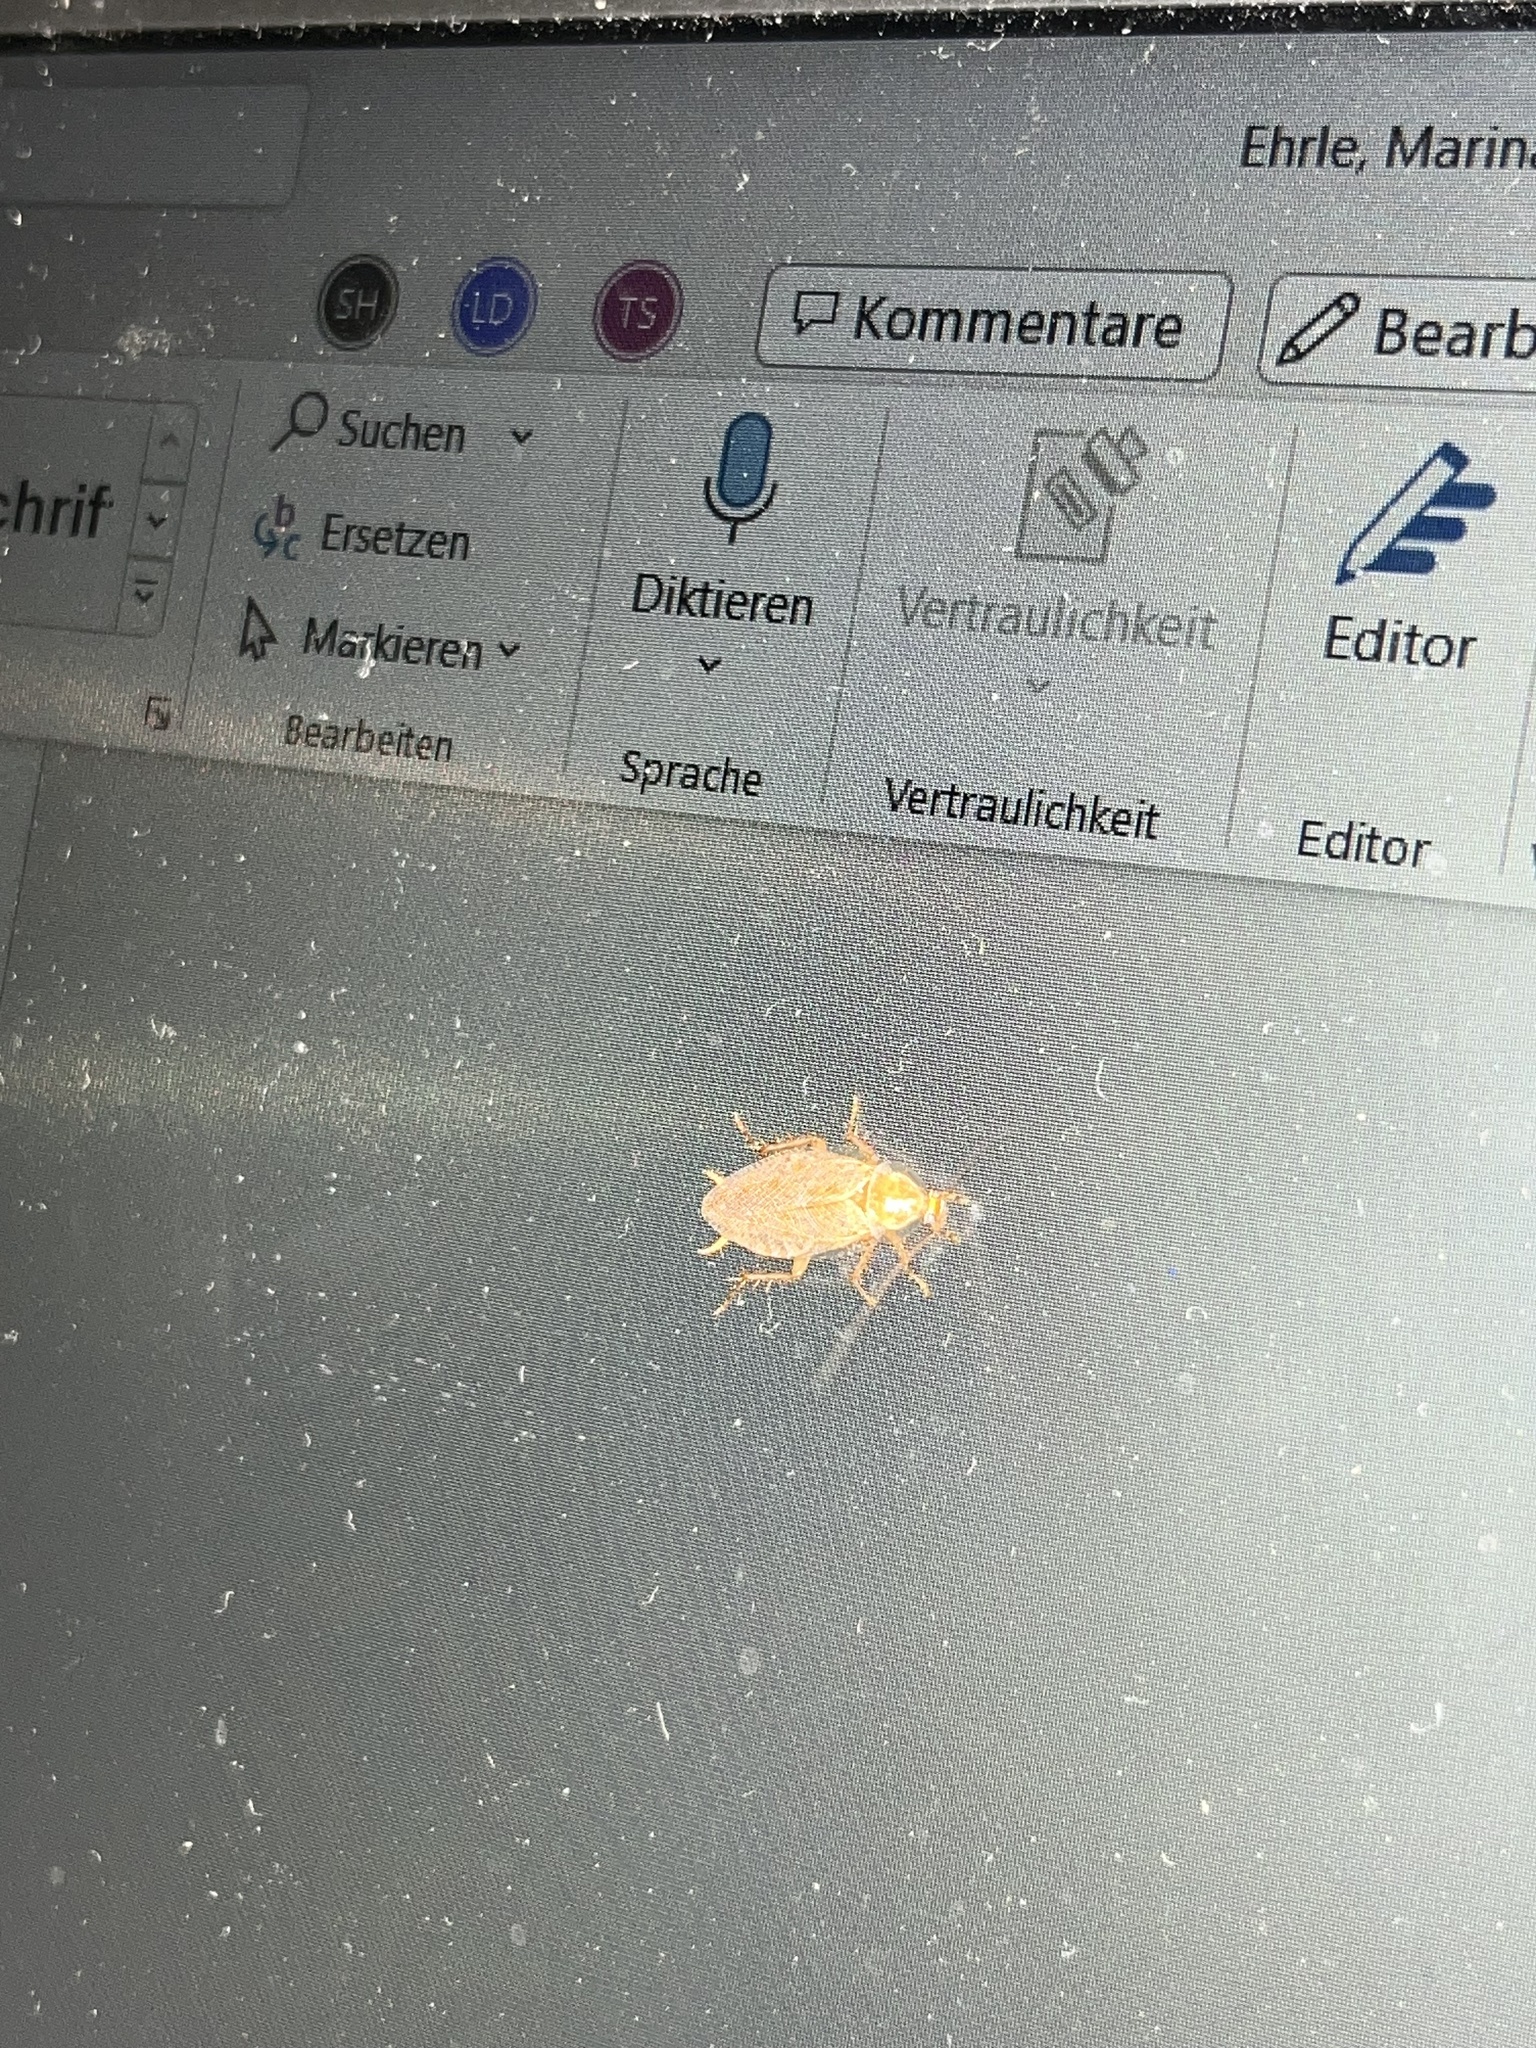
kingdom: Animalia
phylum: Arthropoda
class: Insecta
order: Blattodea
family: Ectobiidae
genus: Ectobius
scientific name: Ectobius vittiventris
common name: Garden cockroach
